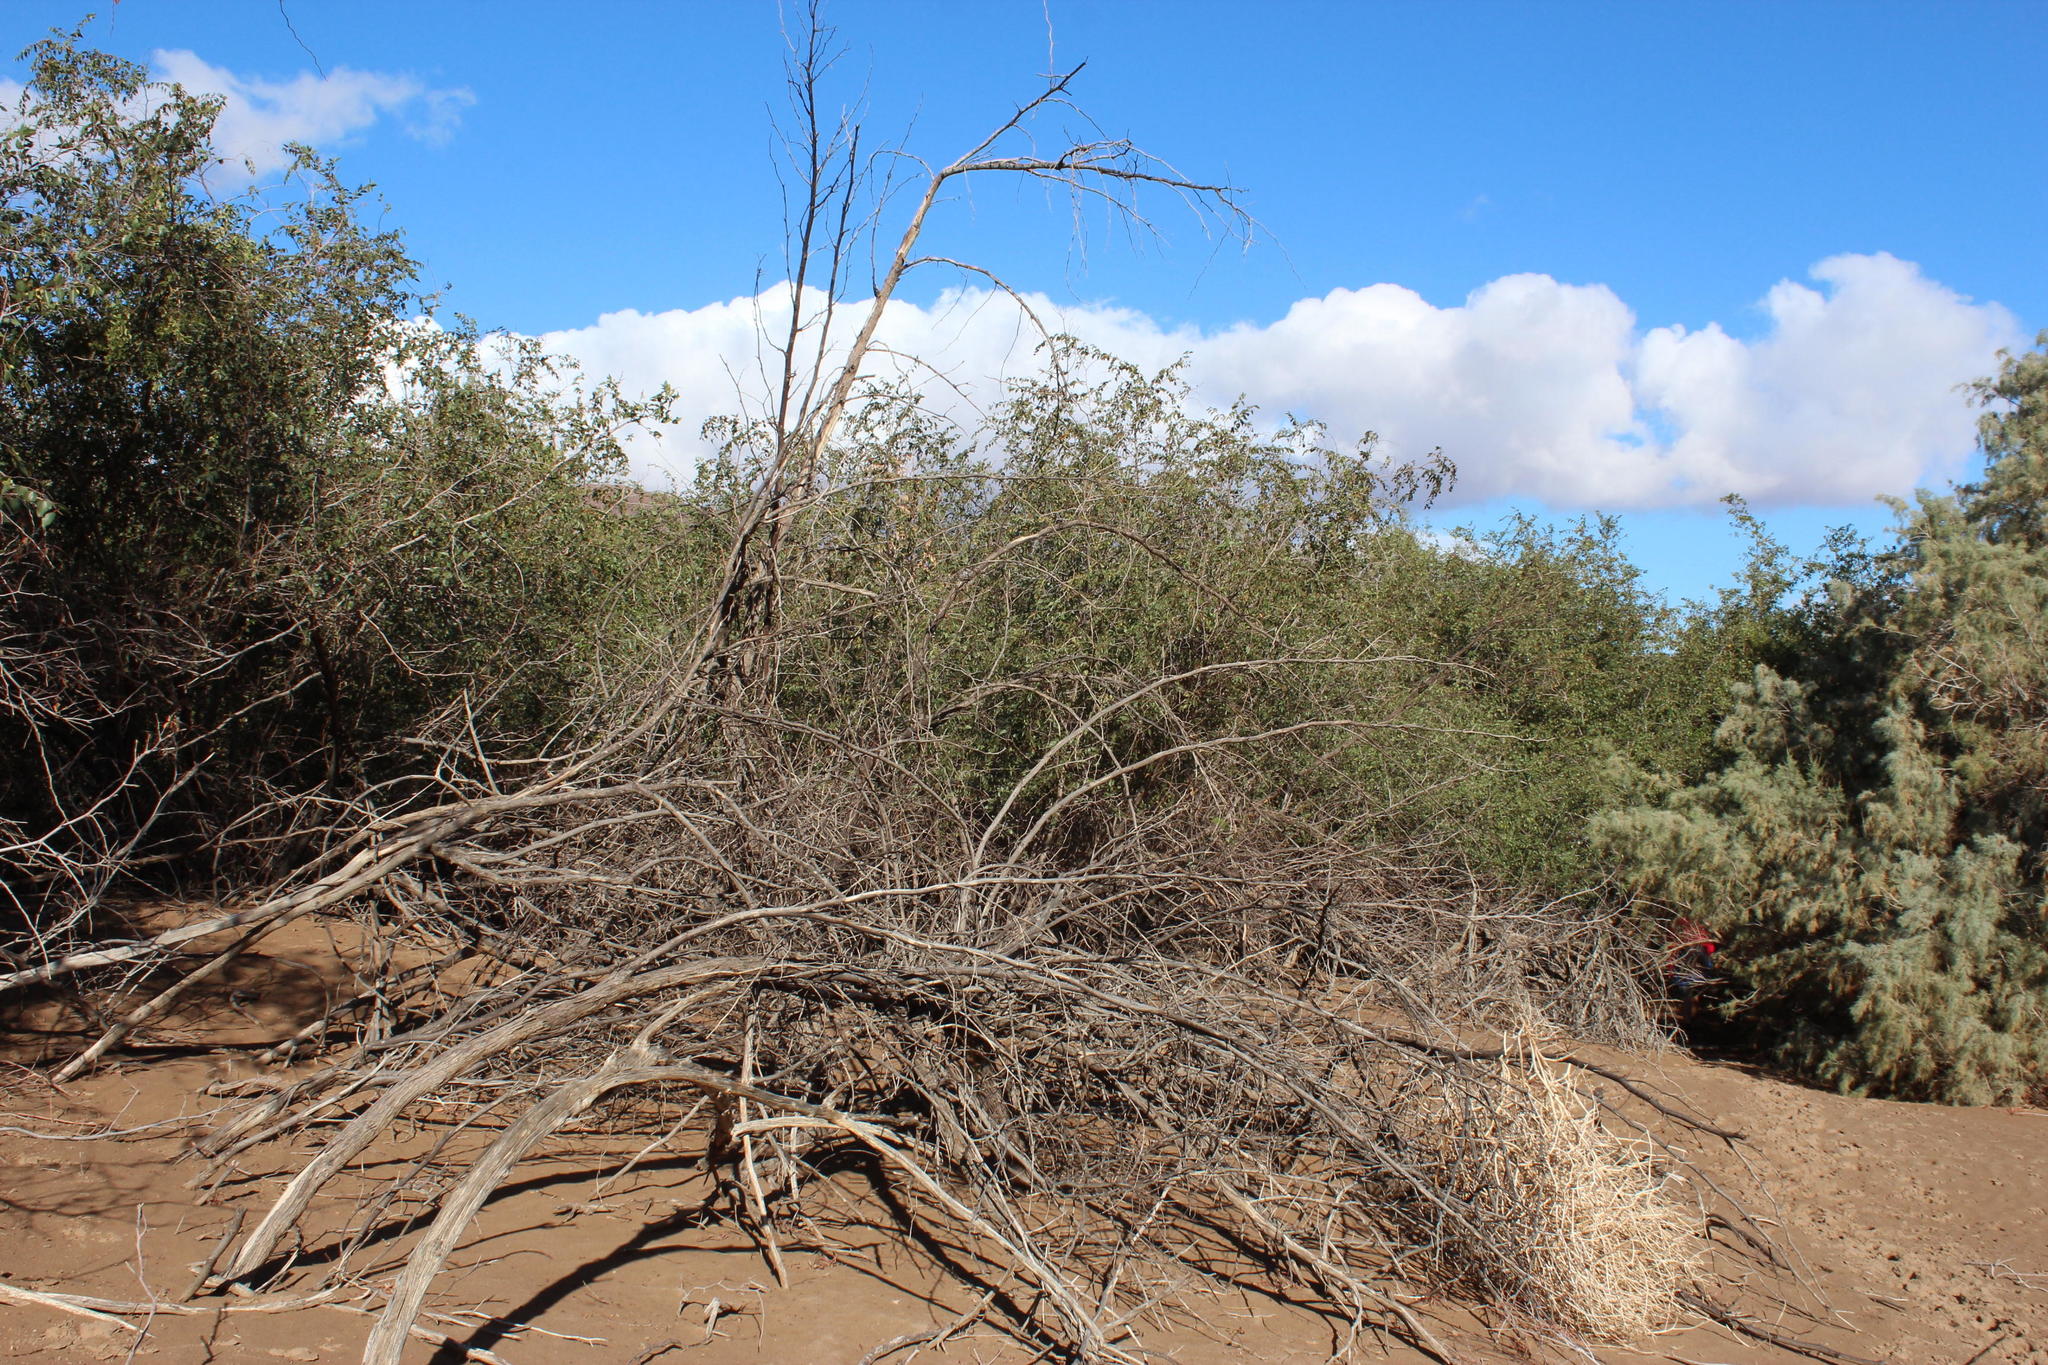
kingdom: Plantae
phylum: Tracheophyta
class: Magnoliopsida
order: Rosales
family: Rhamnaceae
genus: Ziziphus
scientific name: Ziziphus mucronata
